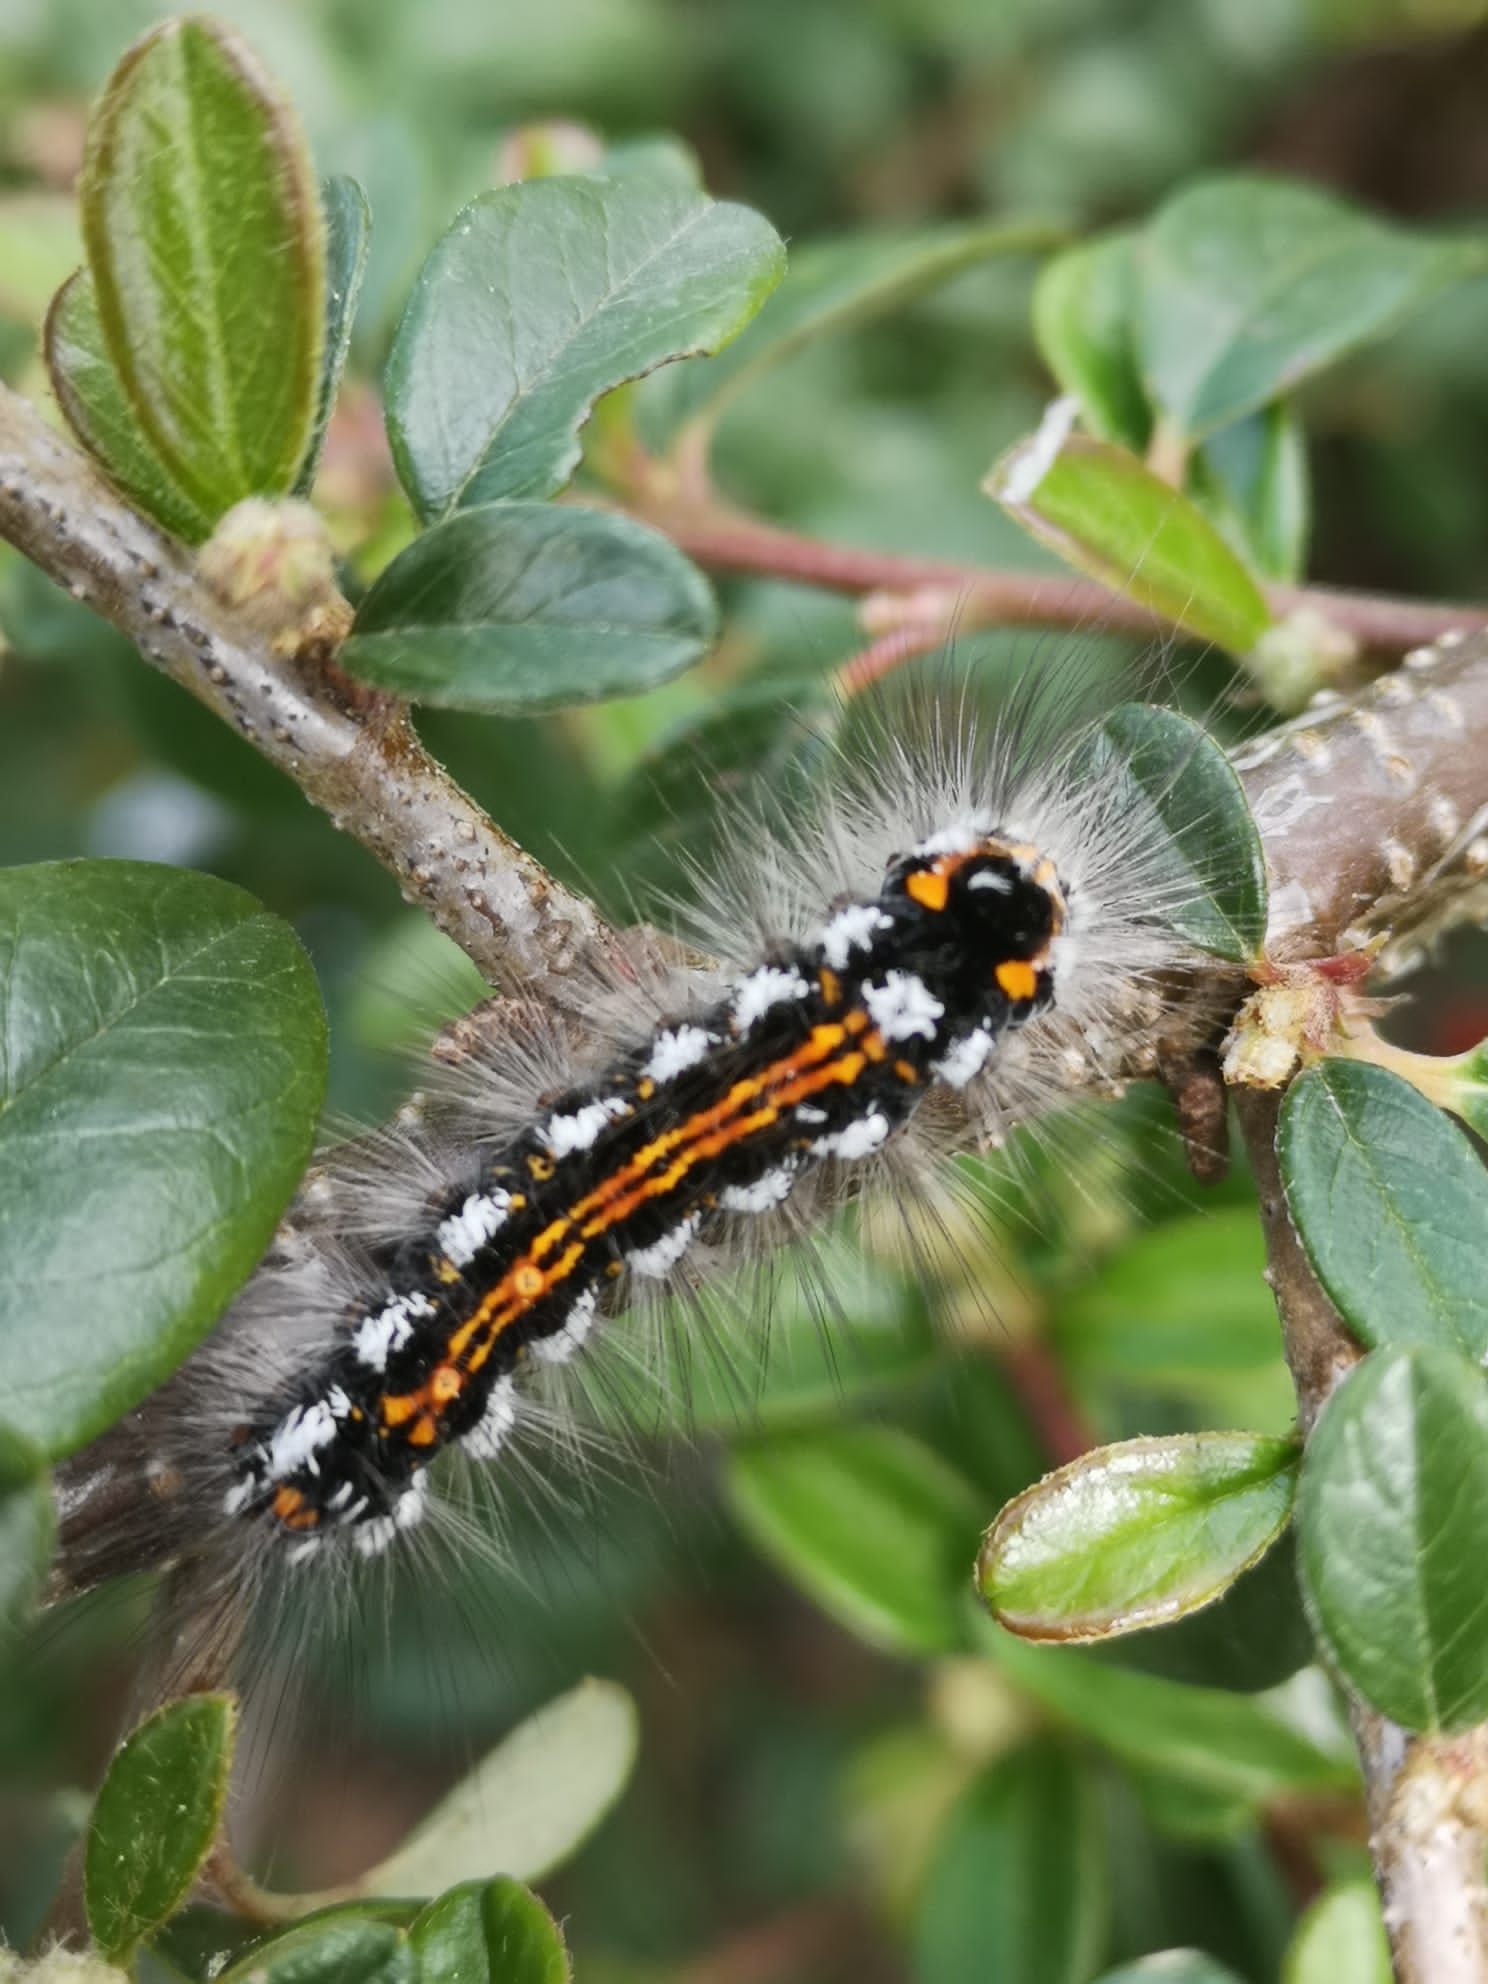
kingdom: Animalia
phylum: Arthropoda
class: Insecta
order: Lepidoptera
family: Erebidae
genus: Sphrageidus
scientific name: Sphrageidus similis
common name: Yellow-tail
